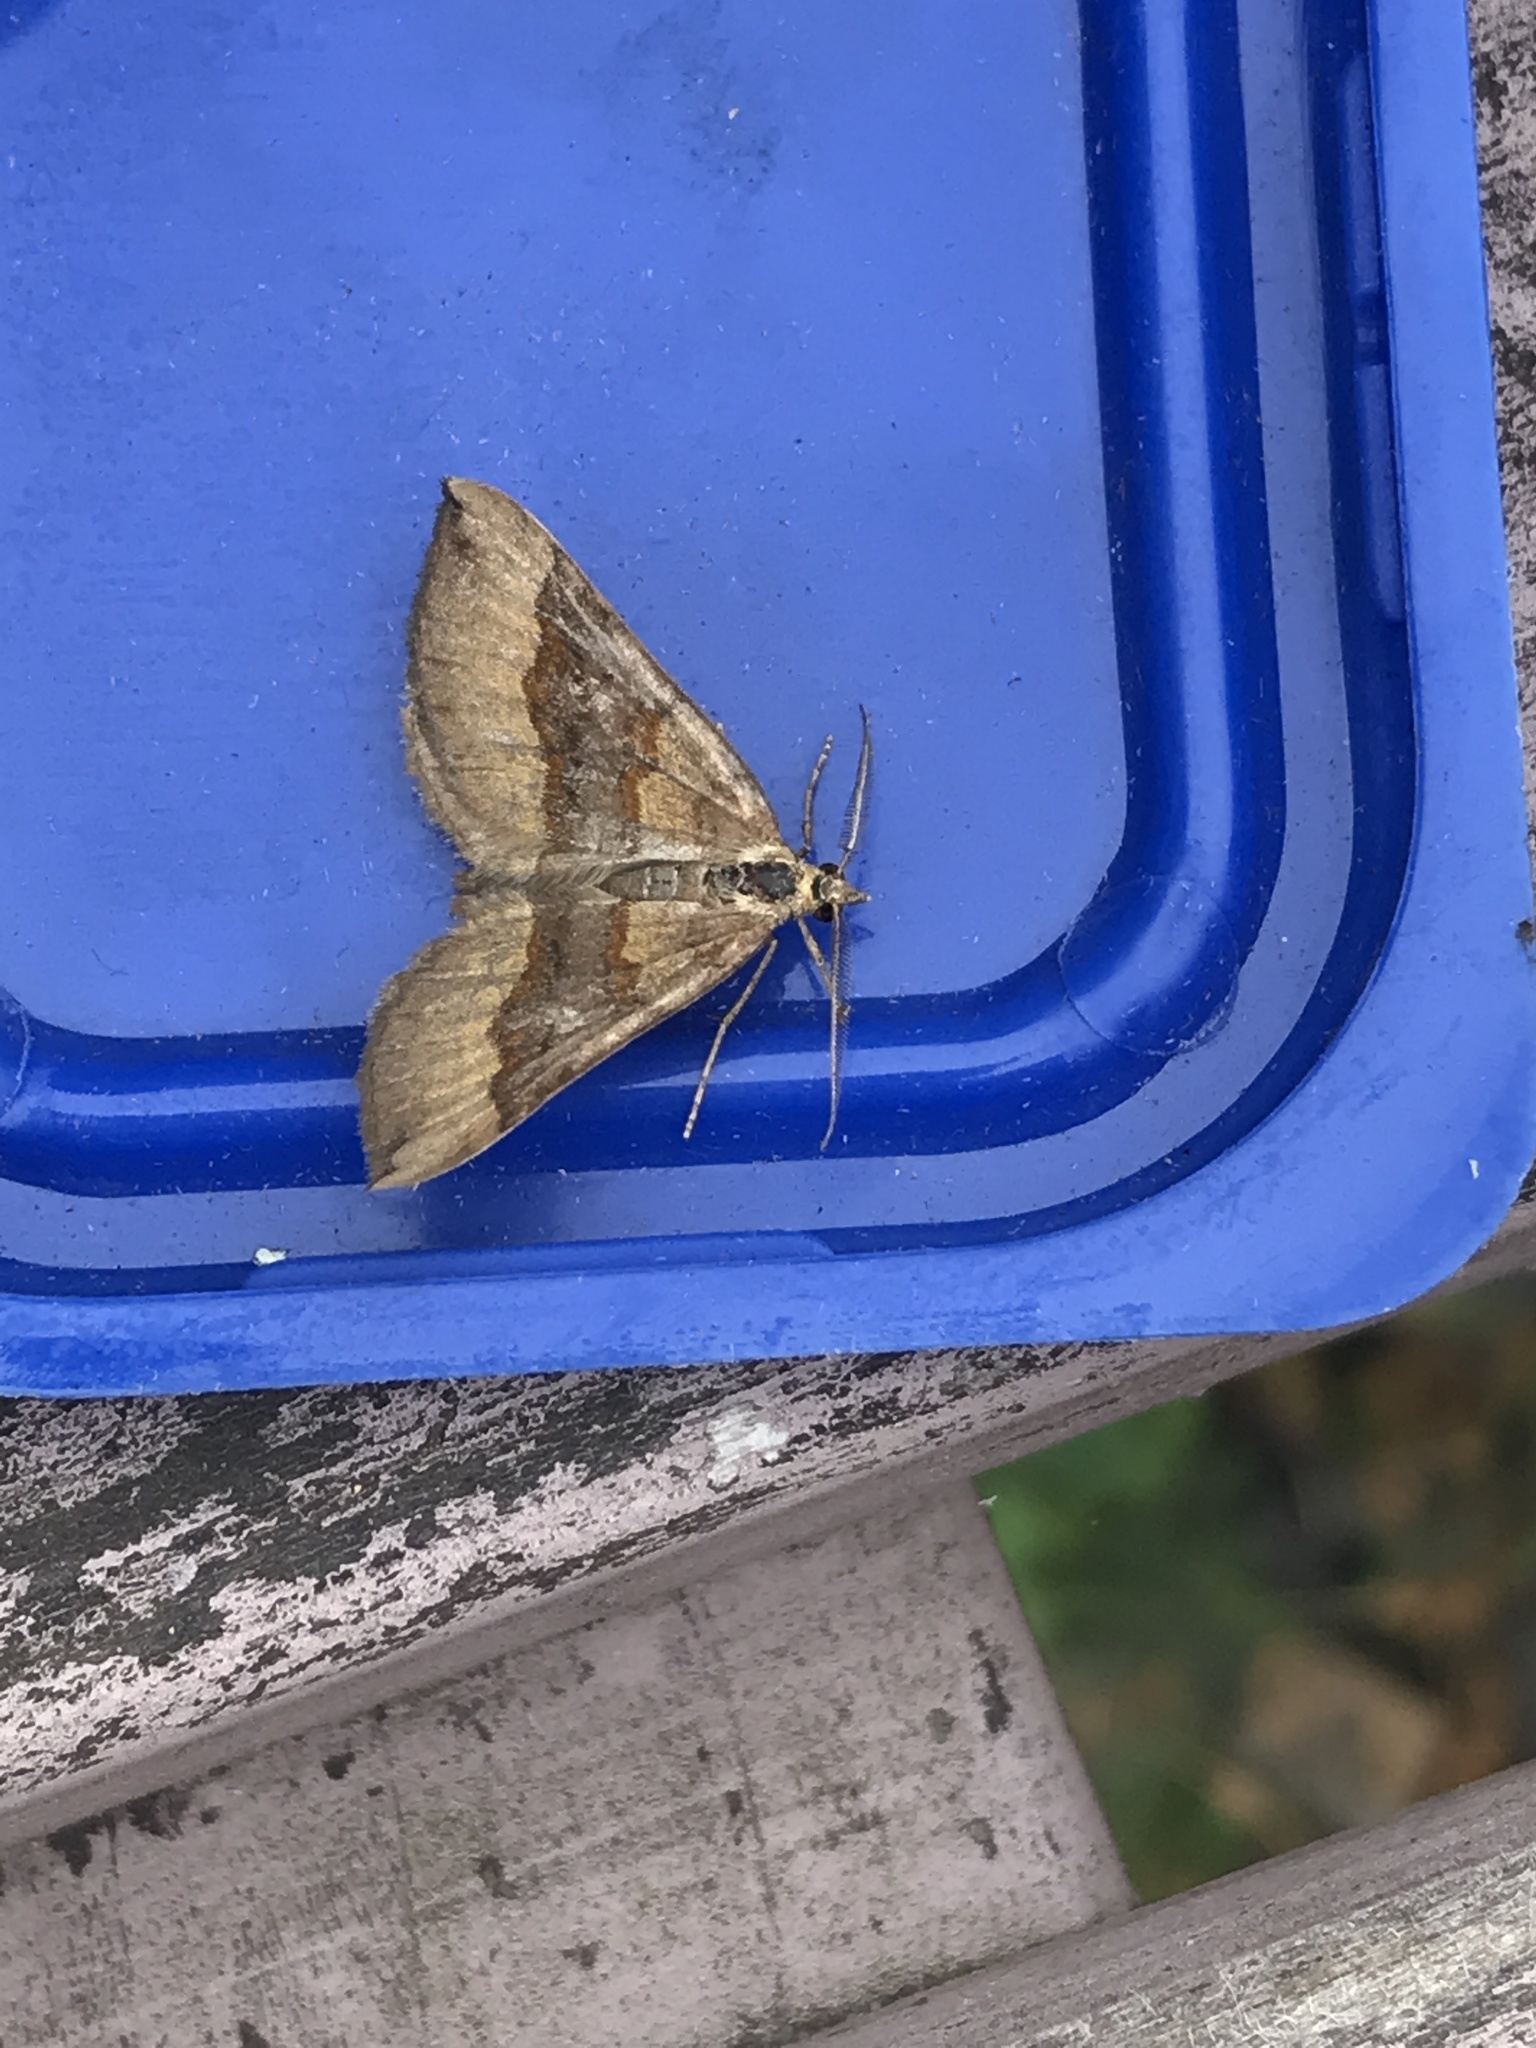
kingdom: Animalia
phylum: Arthropoda
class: Insecta
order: Lepidoptera
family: Geometridae
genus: Scotopteryx
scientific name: Scotopteryx chenopodiata
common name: Shaded broad-bar
